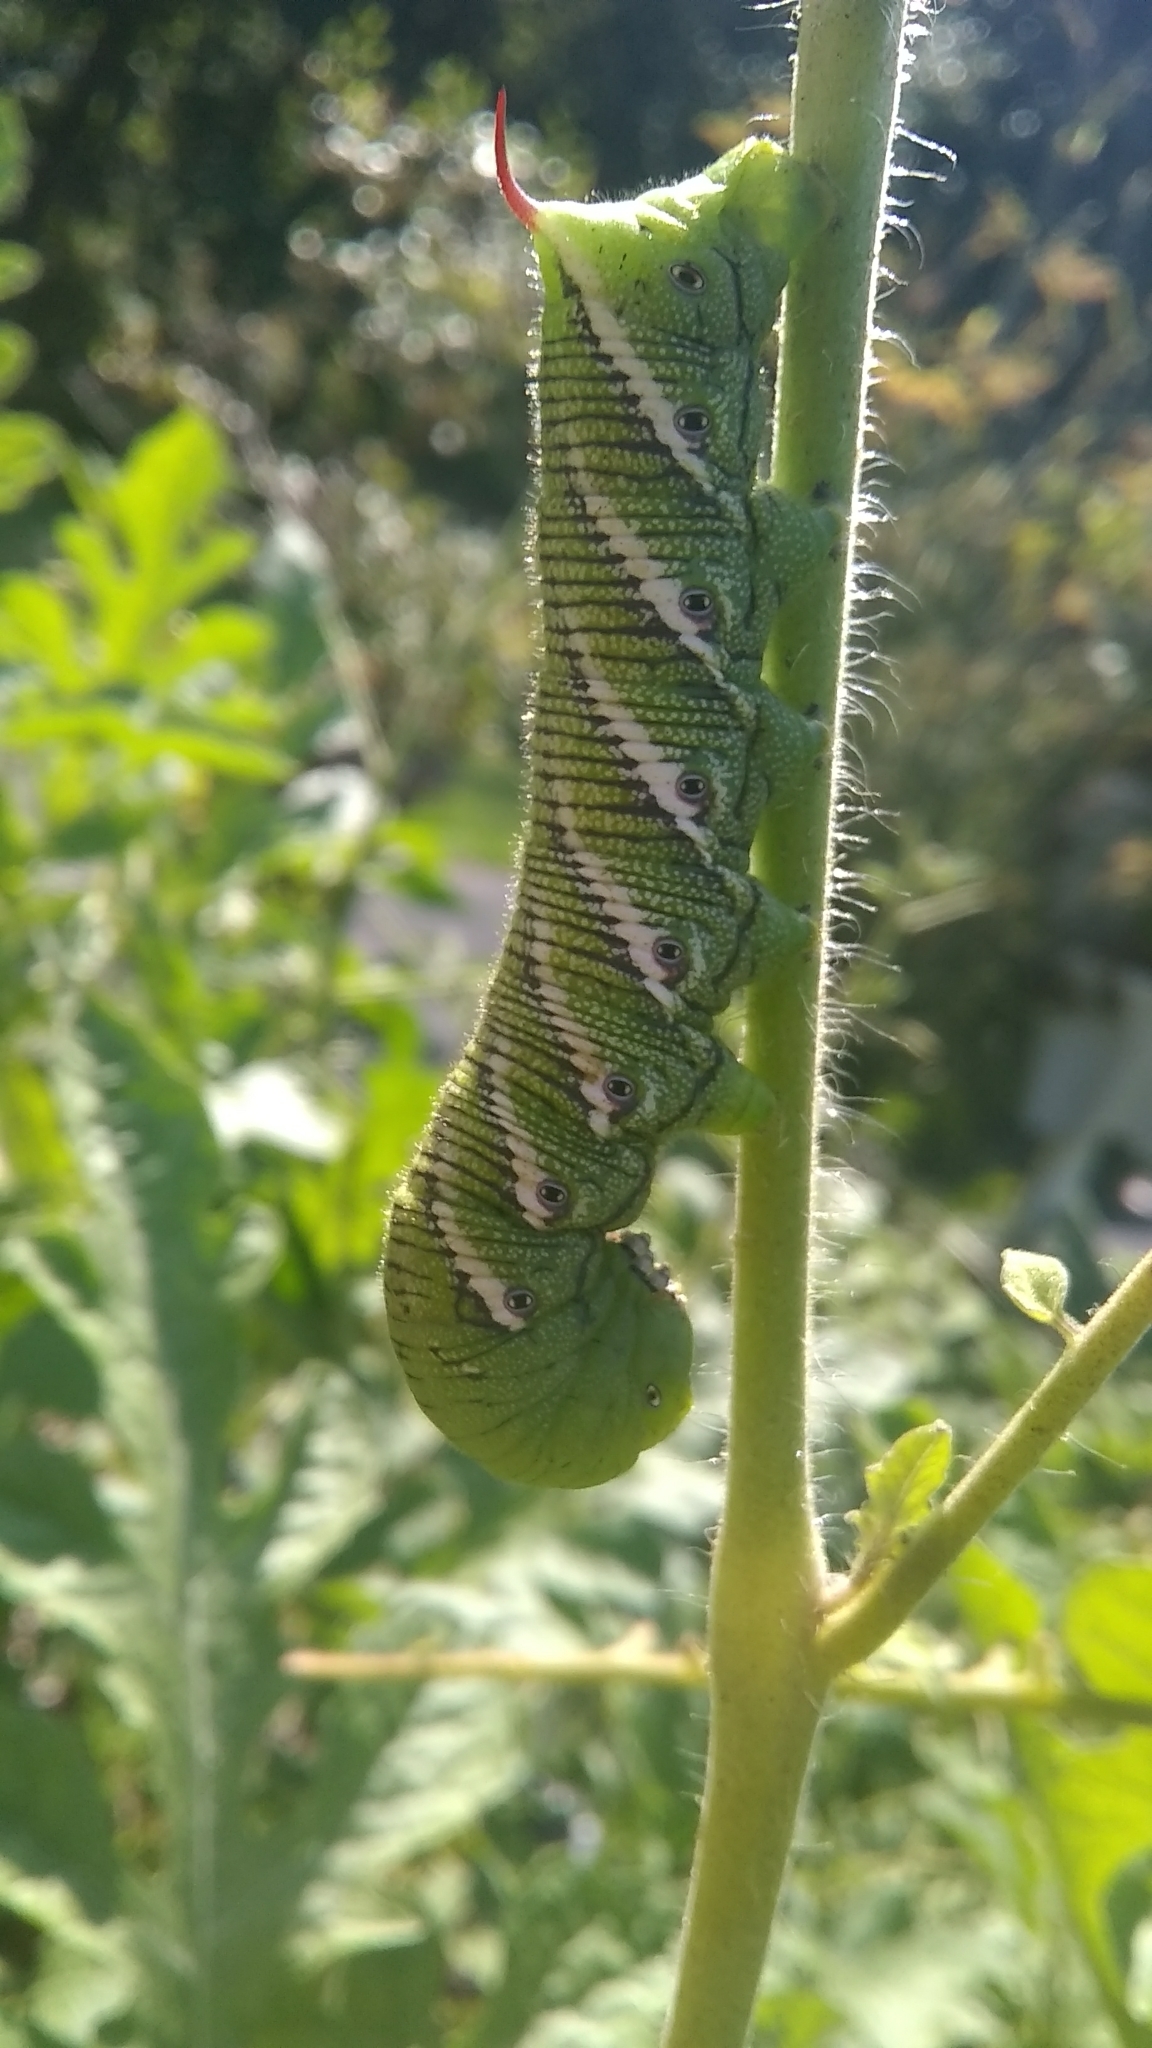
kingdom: Animalia
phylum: Arthropoda
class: Insecta
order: Lepidoptera
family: Sphingidae
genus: Manduca
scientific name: Manduca sexta
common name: Carolina sphinx
